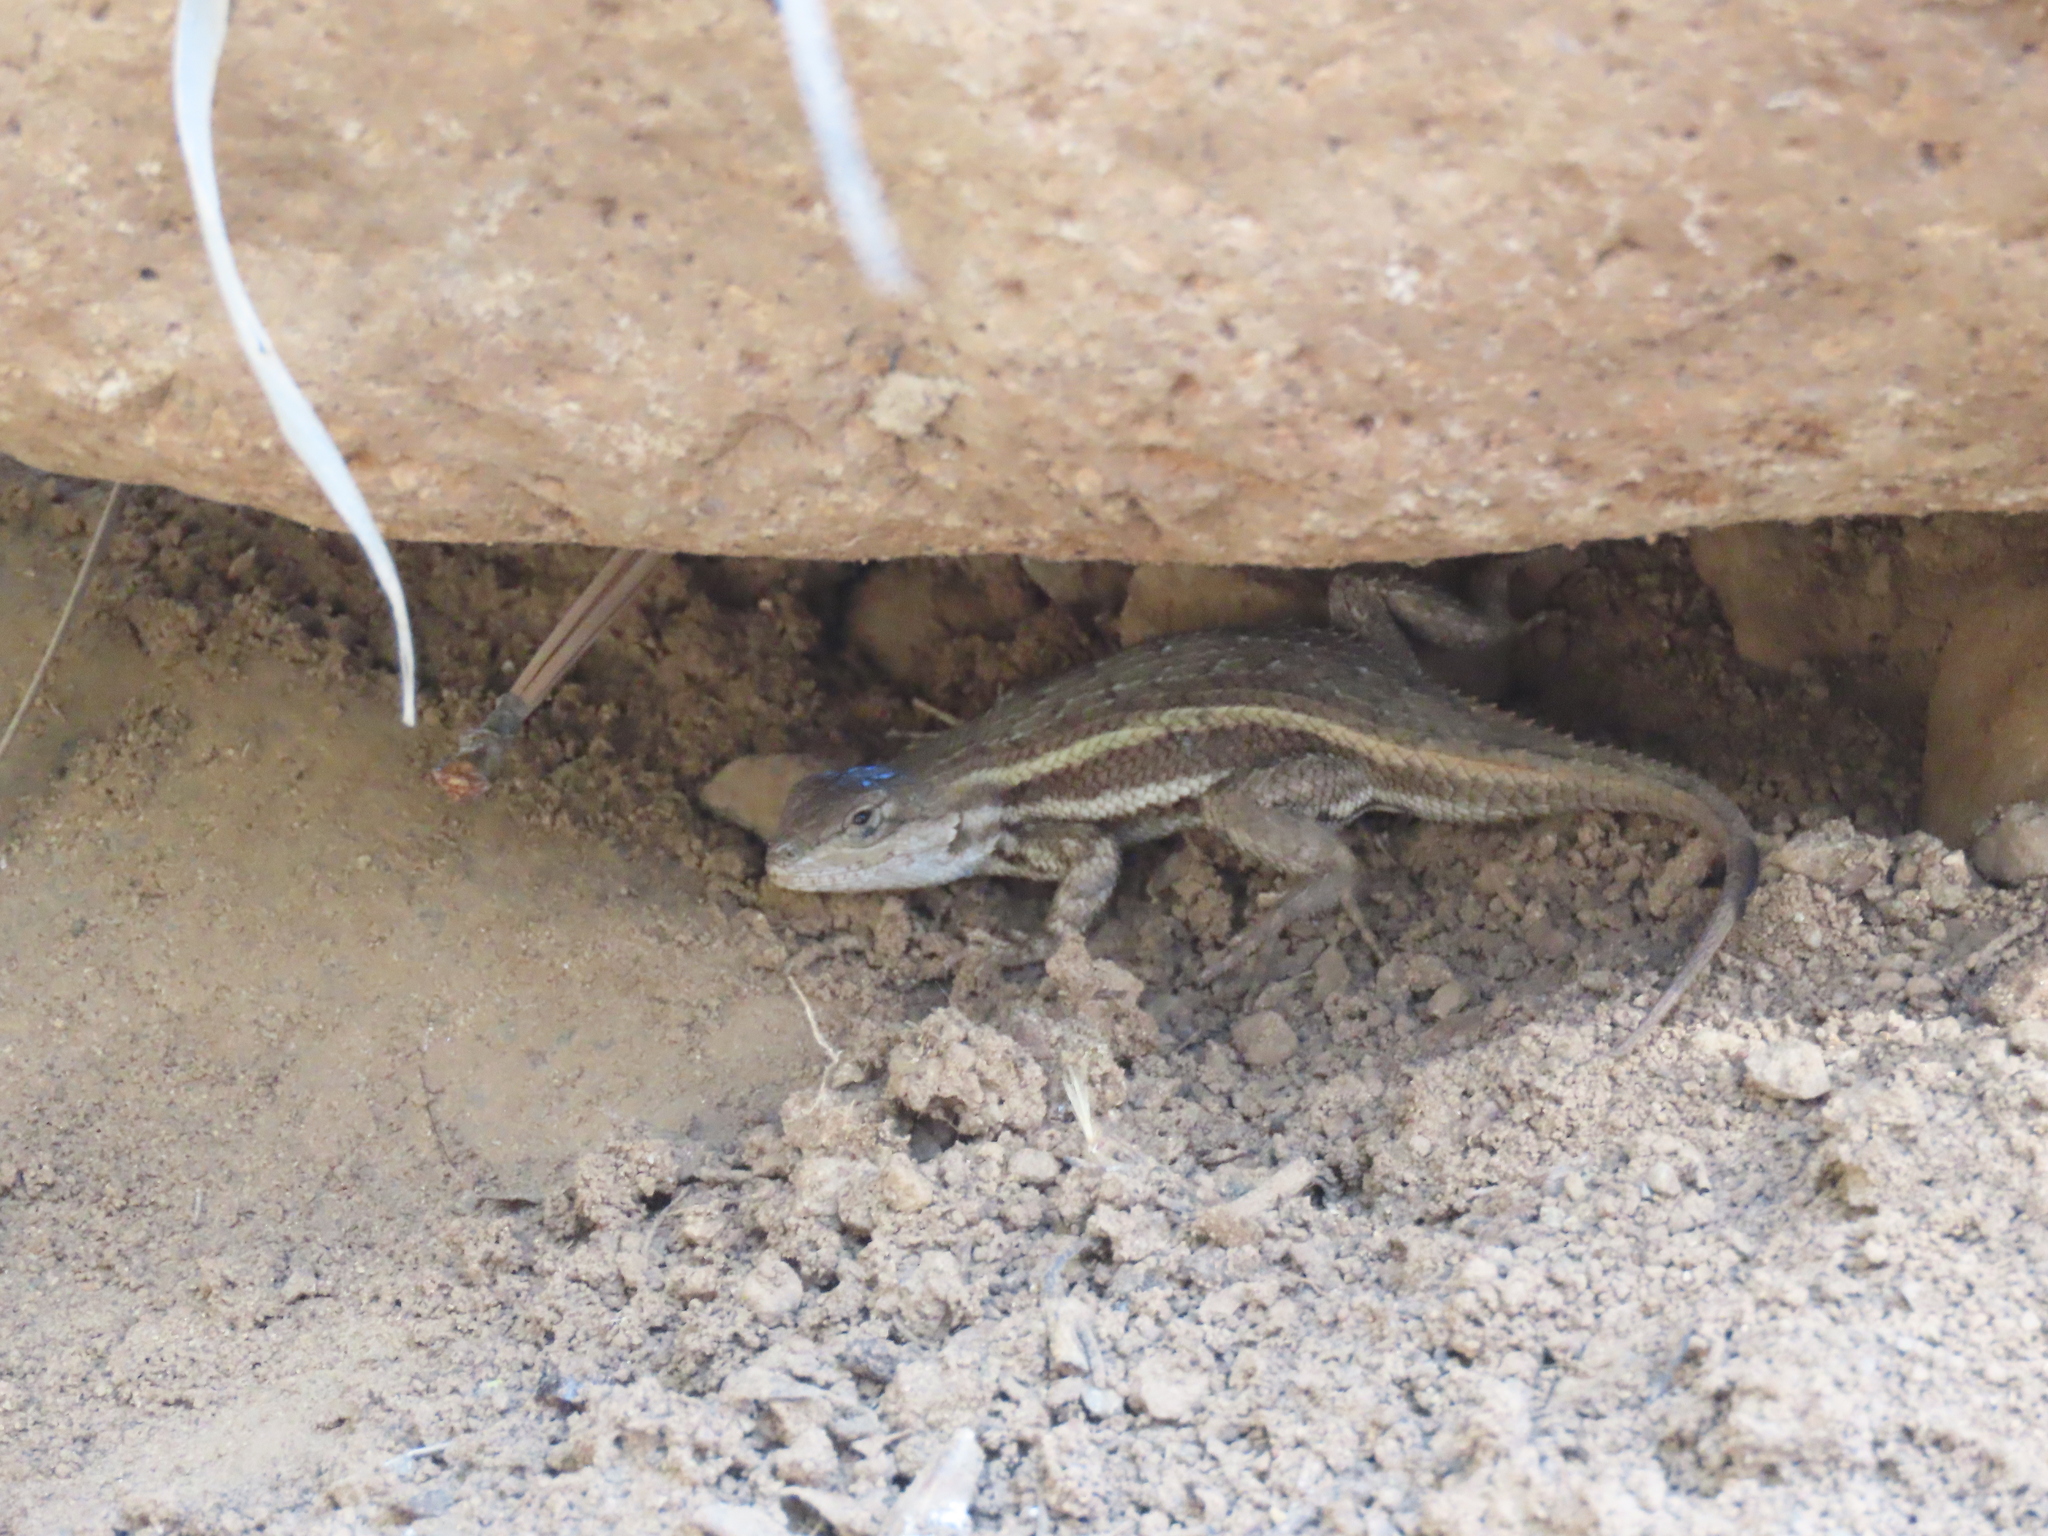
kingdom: Animalia
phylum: Chordata
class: Squamata
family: Phrynosomatidae
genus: Sceloporus
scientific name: Sceloporus virgatus
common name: Striped plateau lizard
